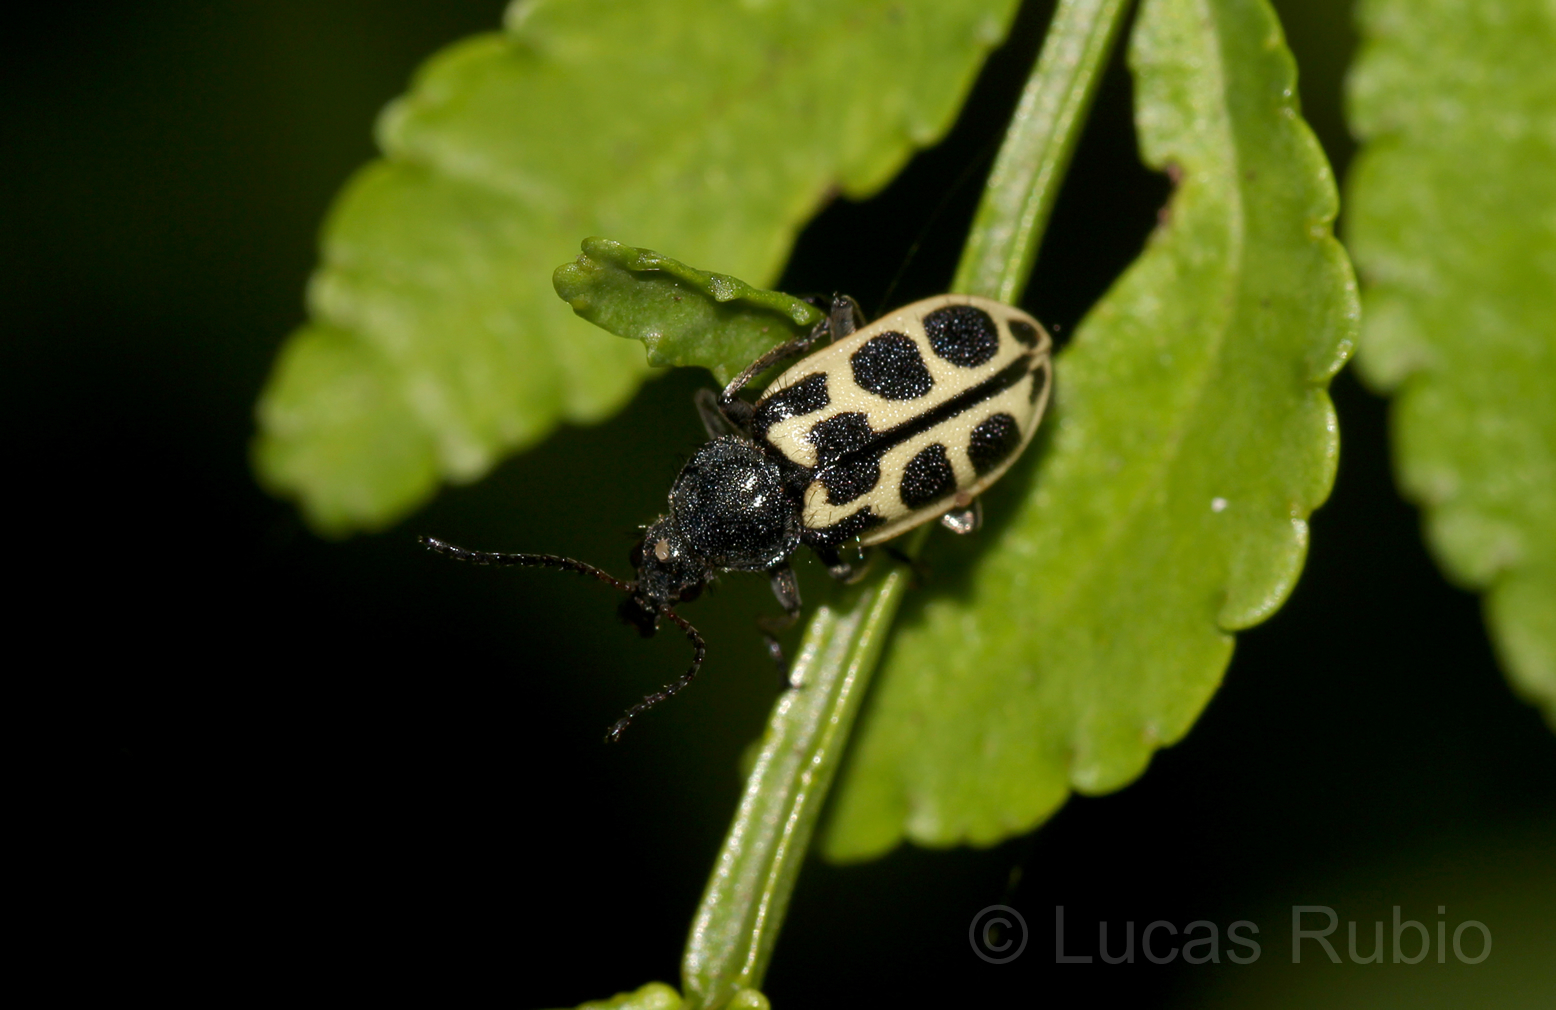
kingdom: Animalia
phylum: Arthropoda
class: Insecta
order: Coleoptera
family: Melyridae
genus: Astylus
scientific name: Astylus
